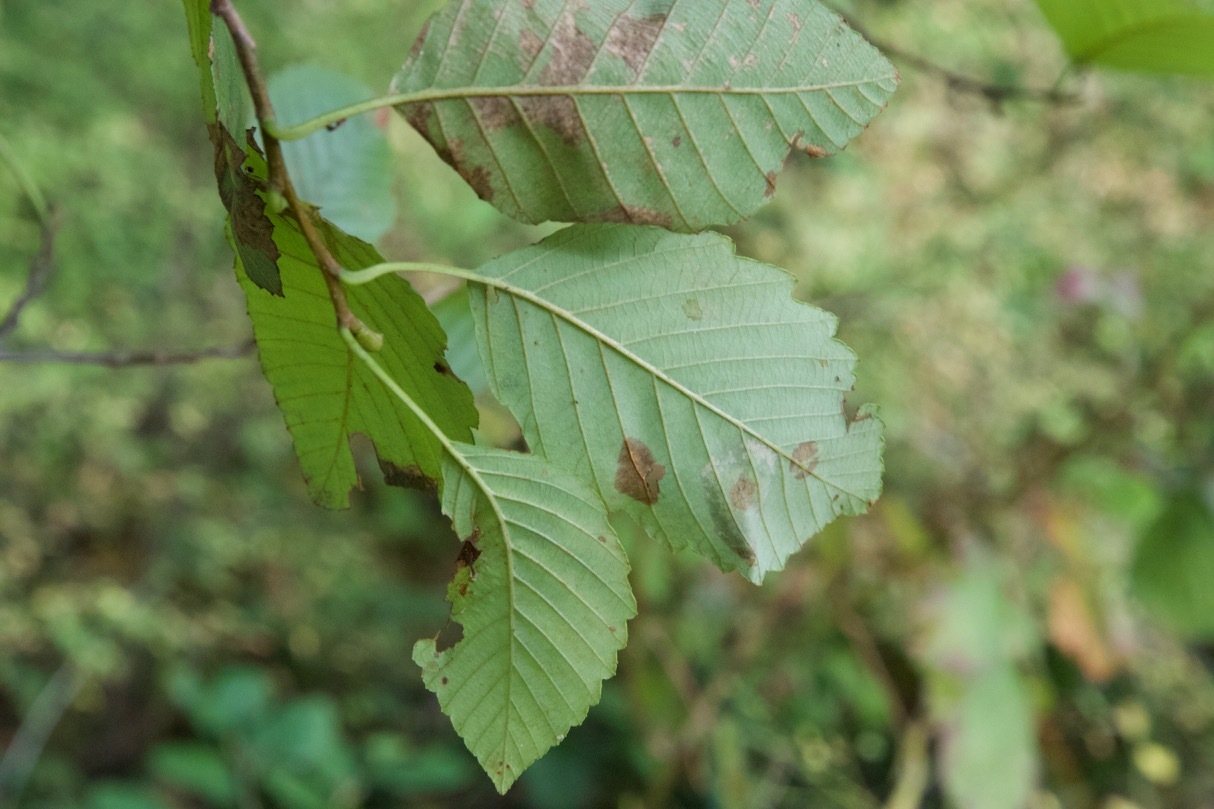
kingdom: Plantae
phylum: Tracheophyta
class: Magnoliopsida
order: Fagales
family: Betulaceae
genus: Alnus
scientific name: Alnus rubra
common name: Red alder
